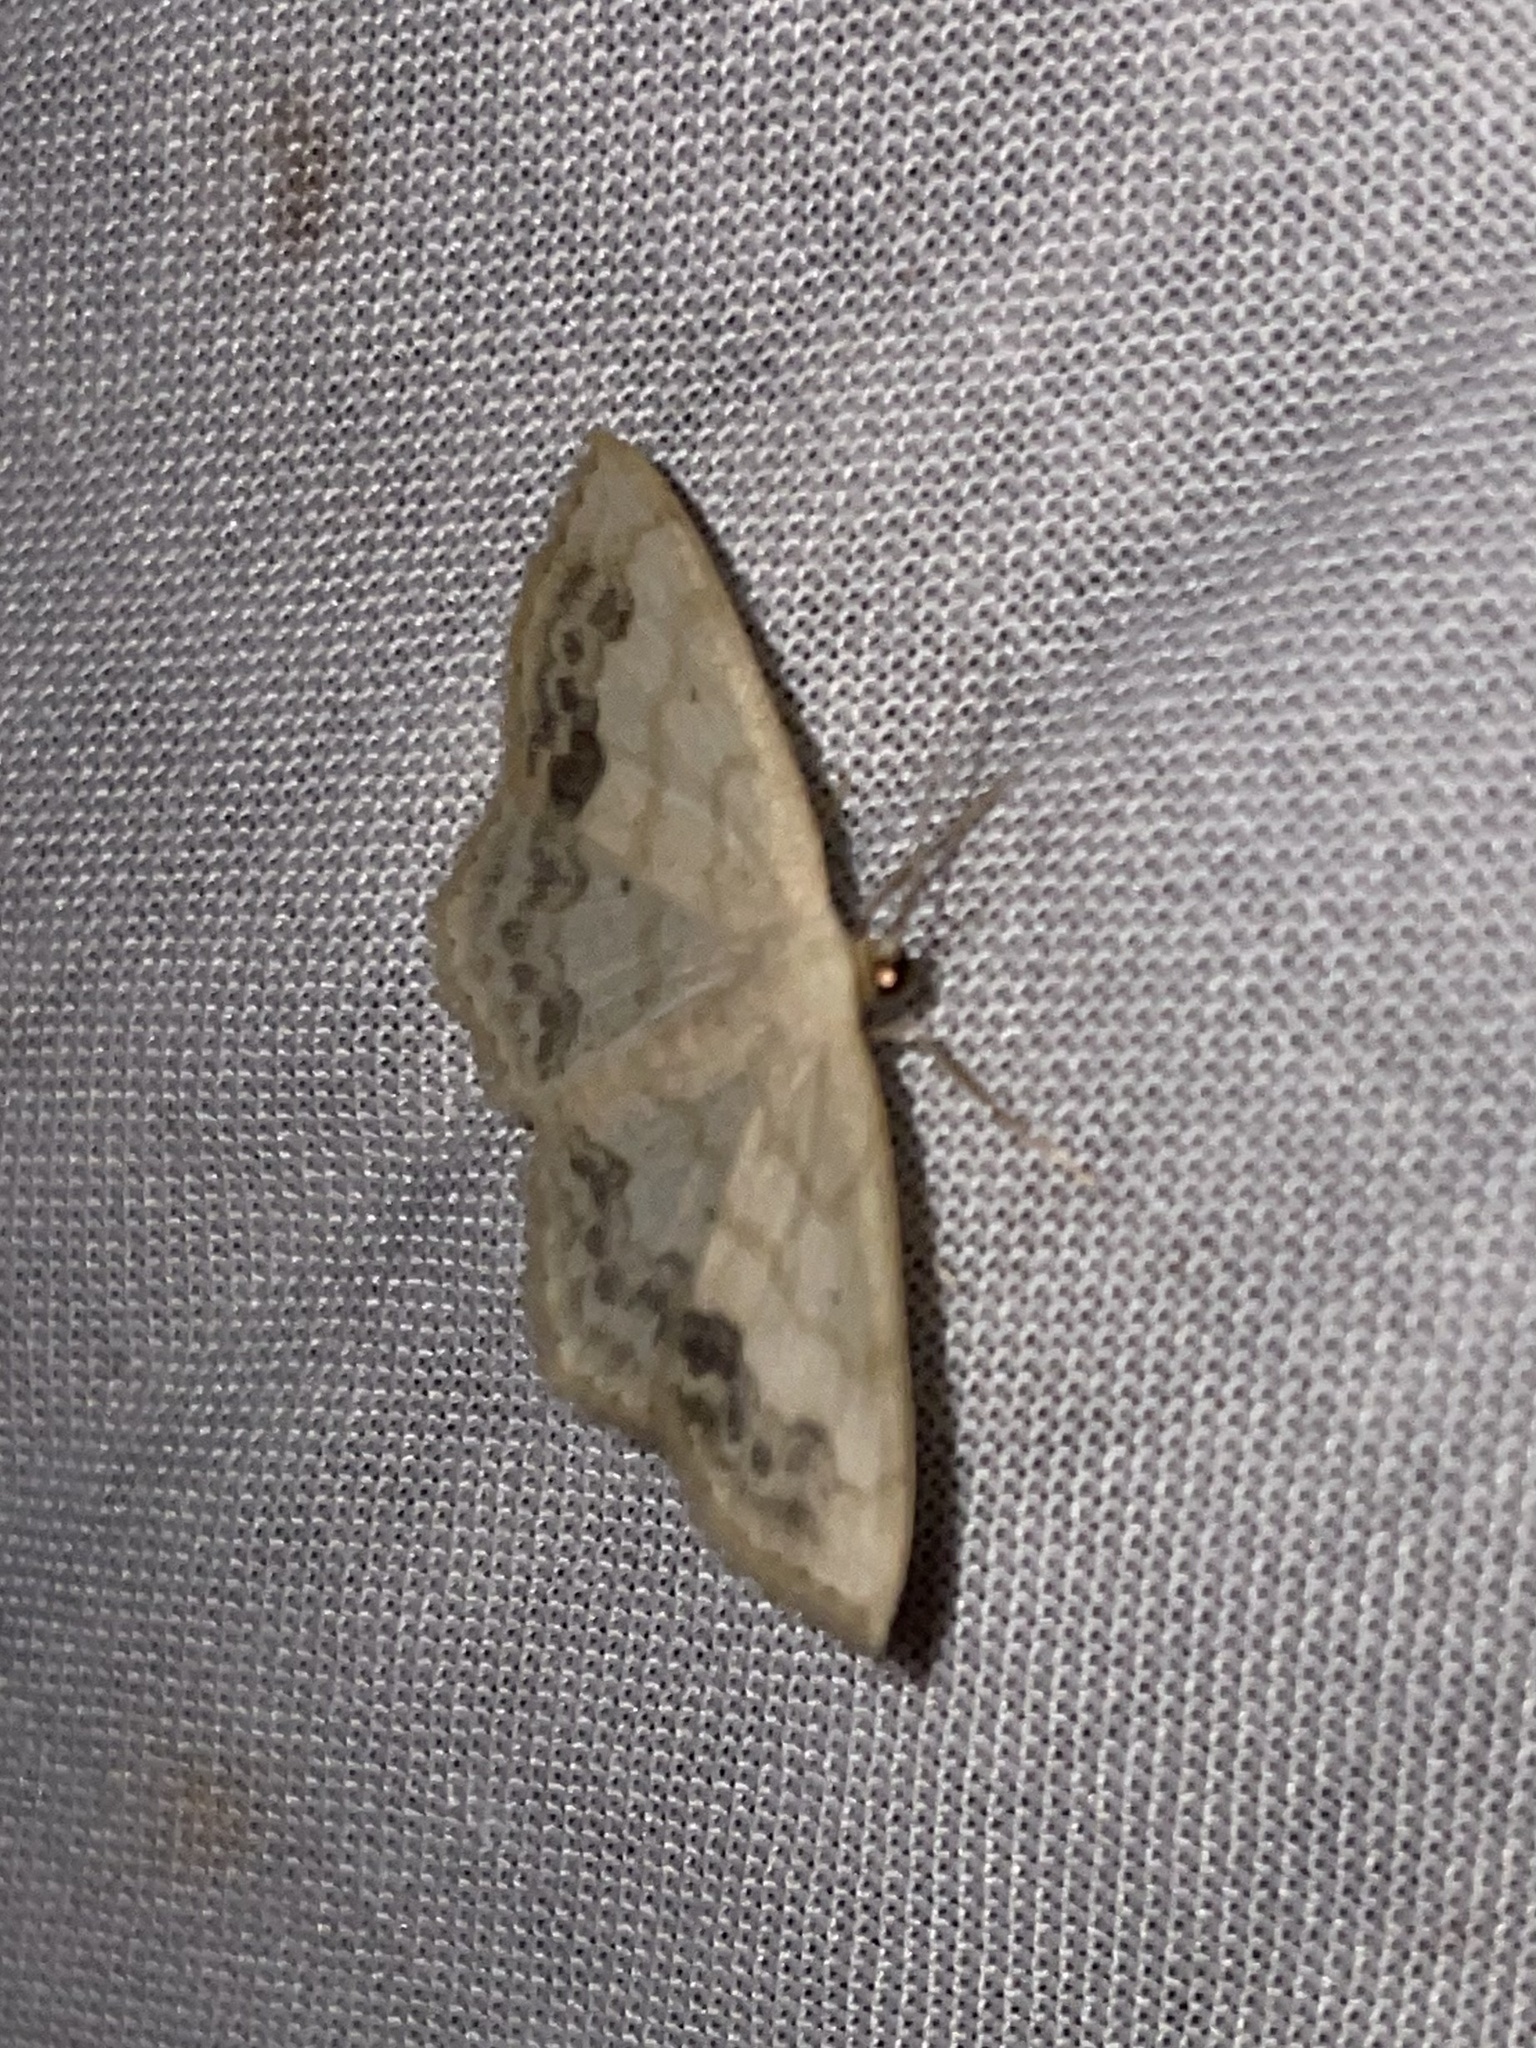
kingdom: Animalia
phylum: Arthropoda
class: Insecta
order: Lepidoptera
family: Geometridae
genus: Scopula
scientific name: Scopula limboundata
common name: Large lace border
